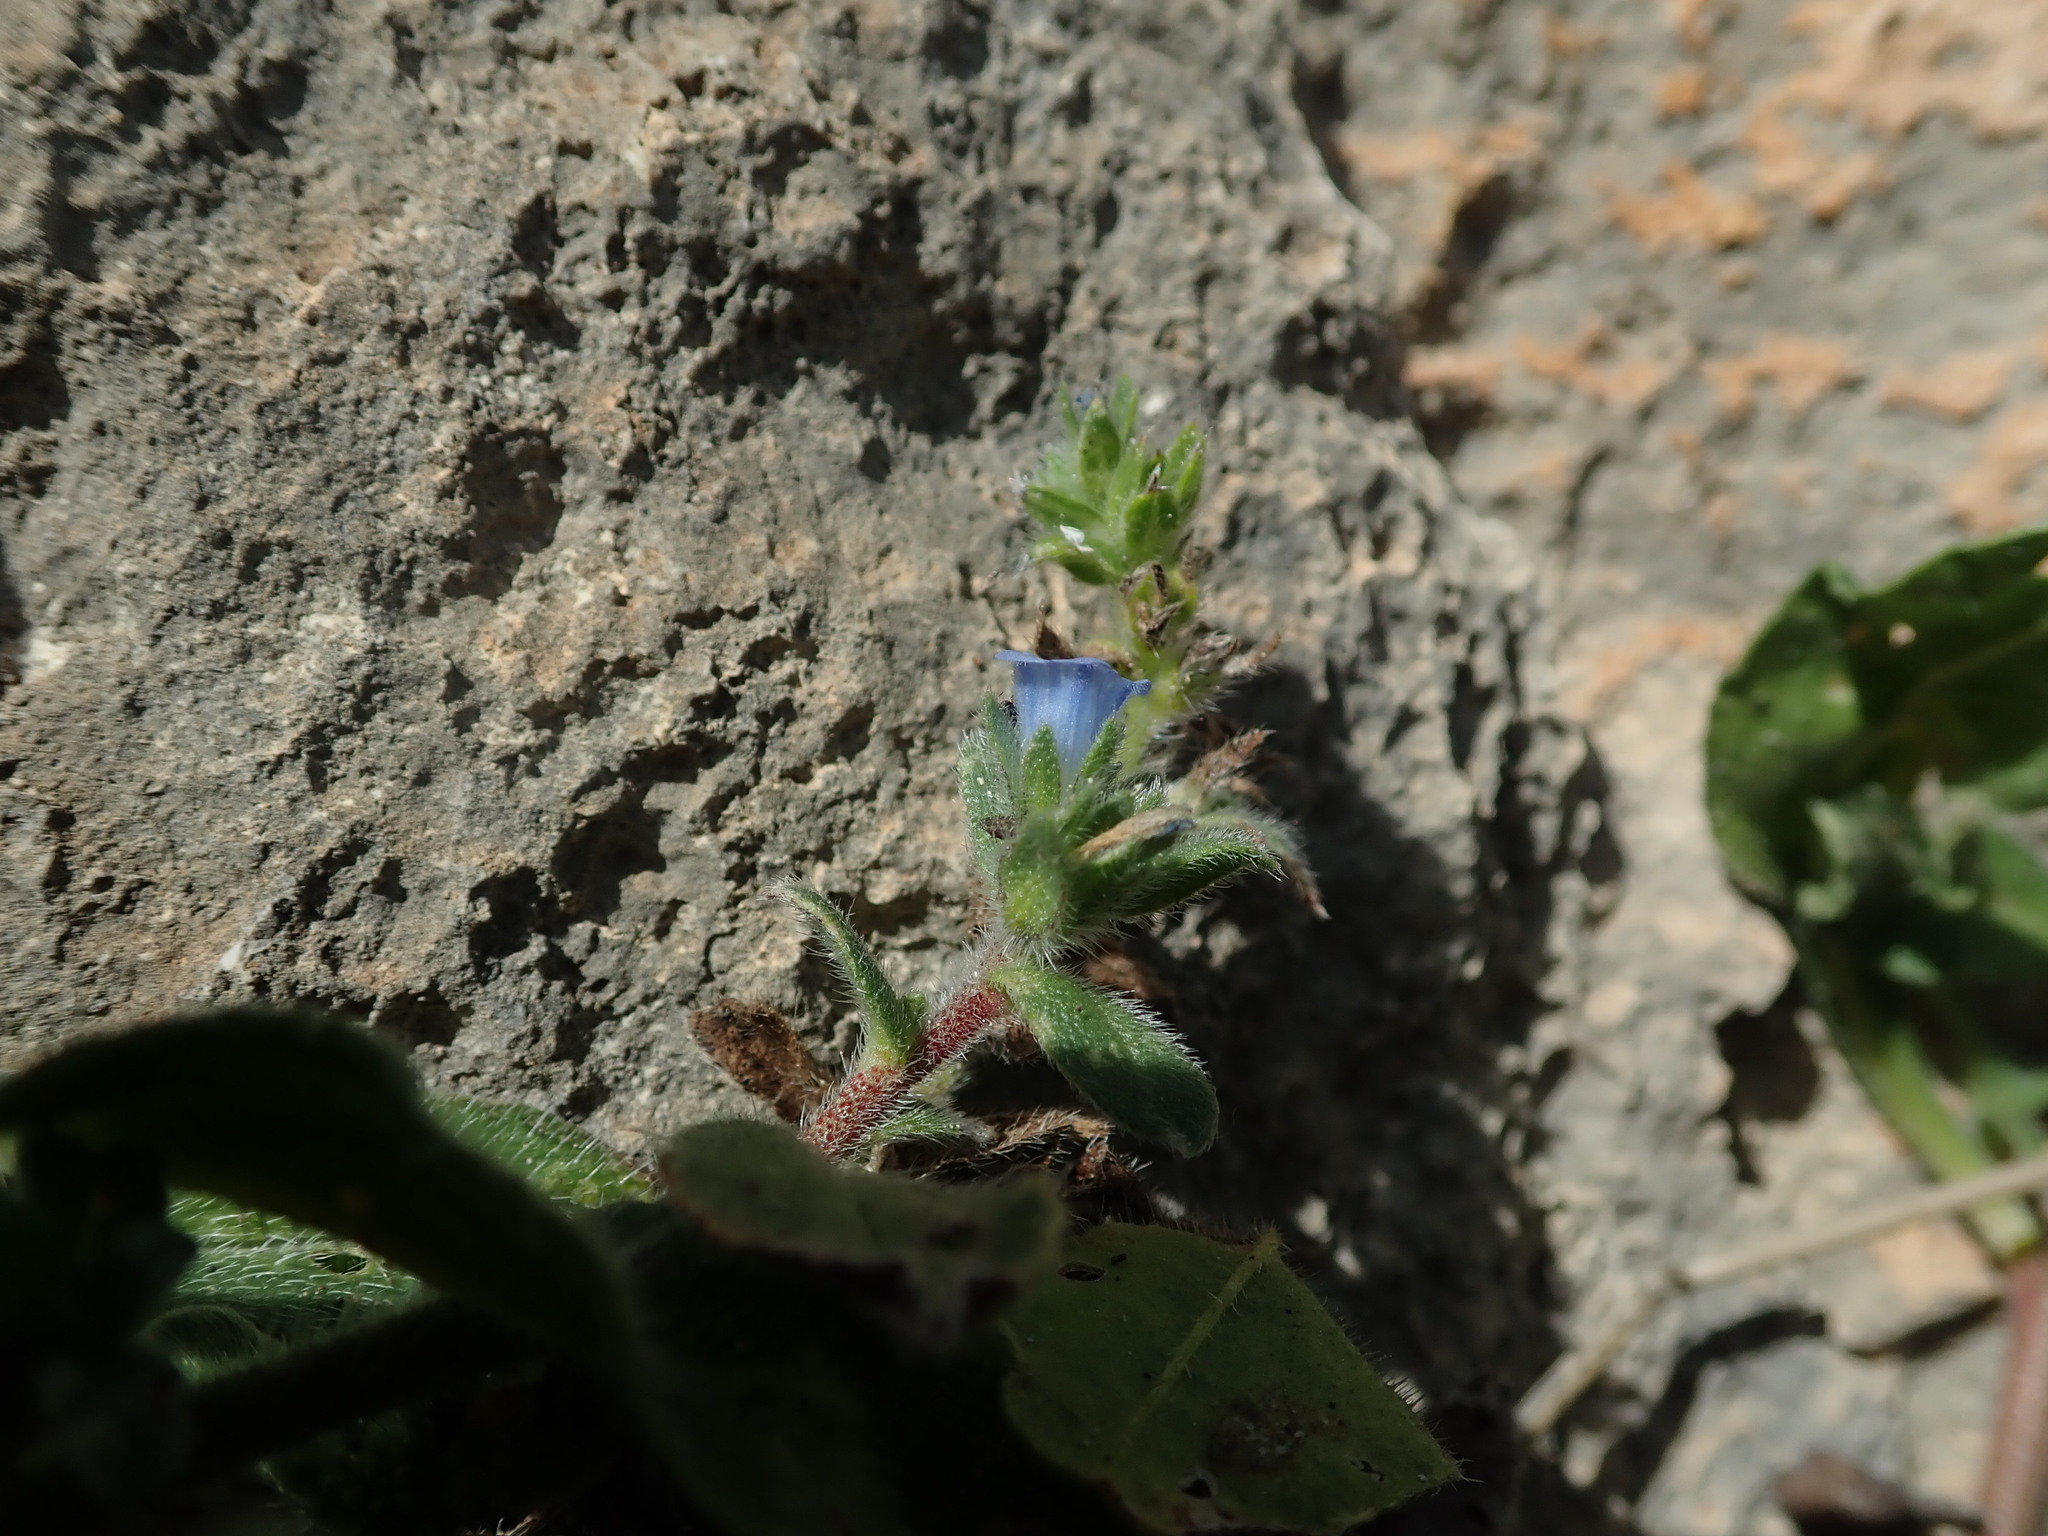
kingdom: Plantae
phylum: Tracheophyta
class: Magnoliopsida
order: Boraginales
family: Boraginaceae
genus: Echium
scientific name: Echium parviflorum
